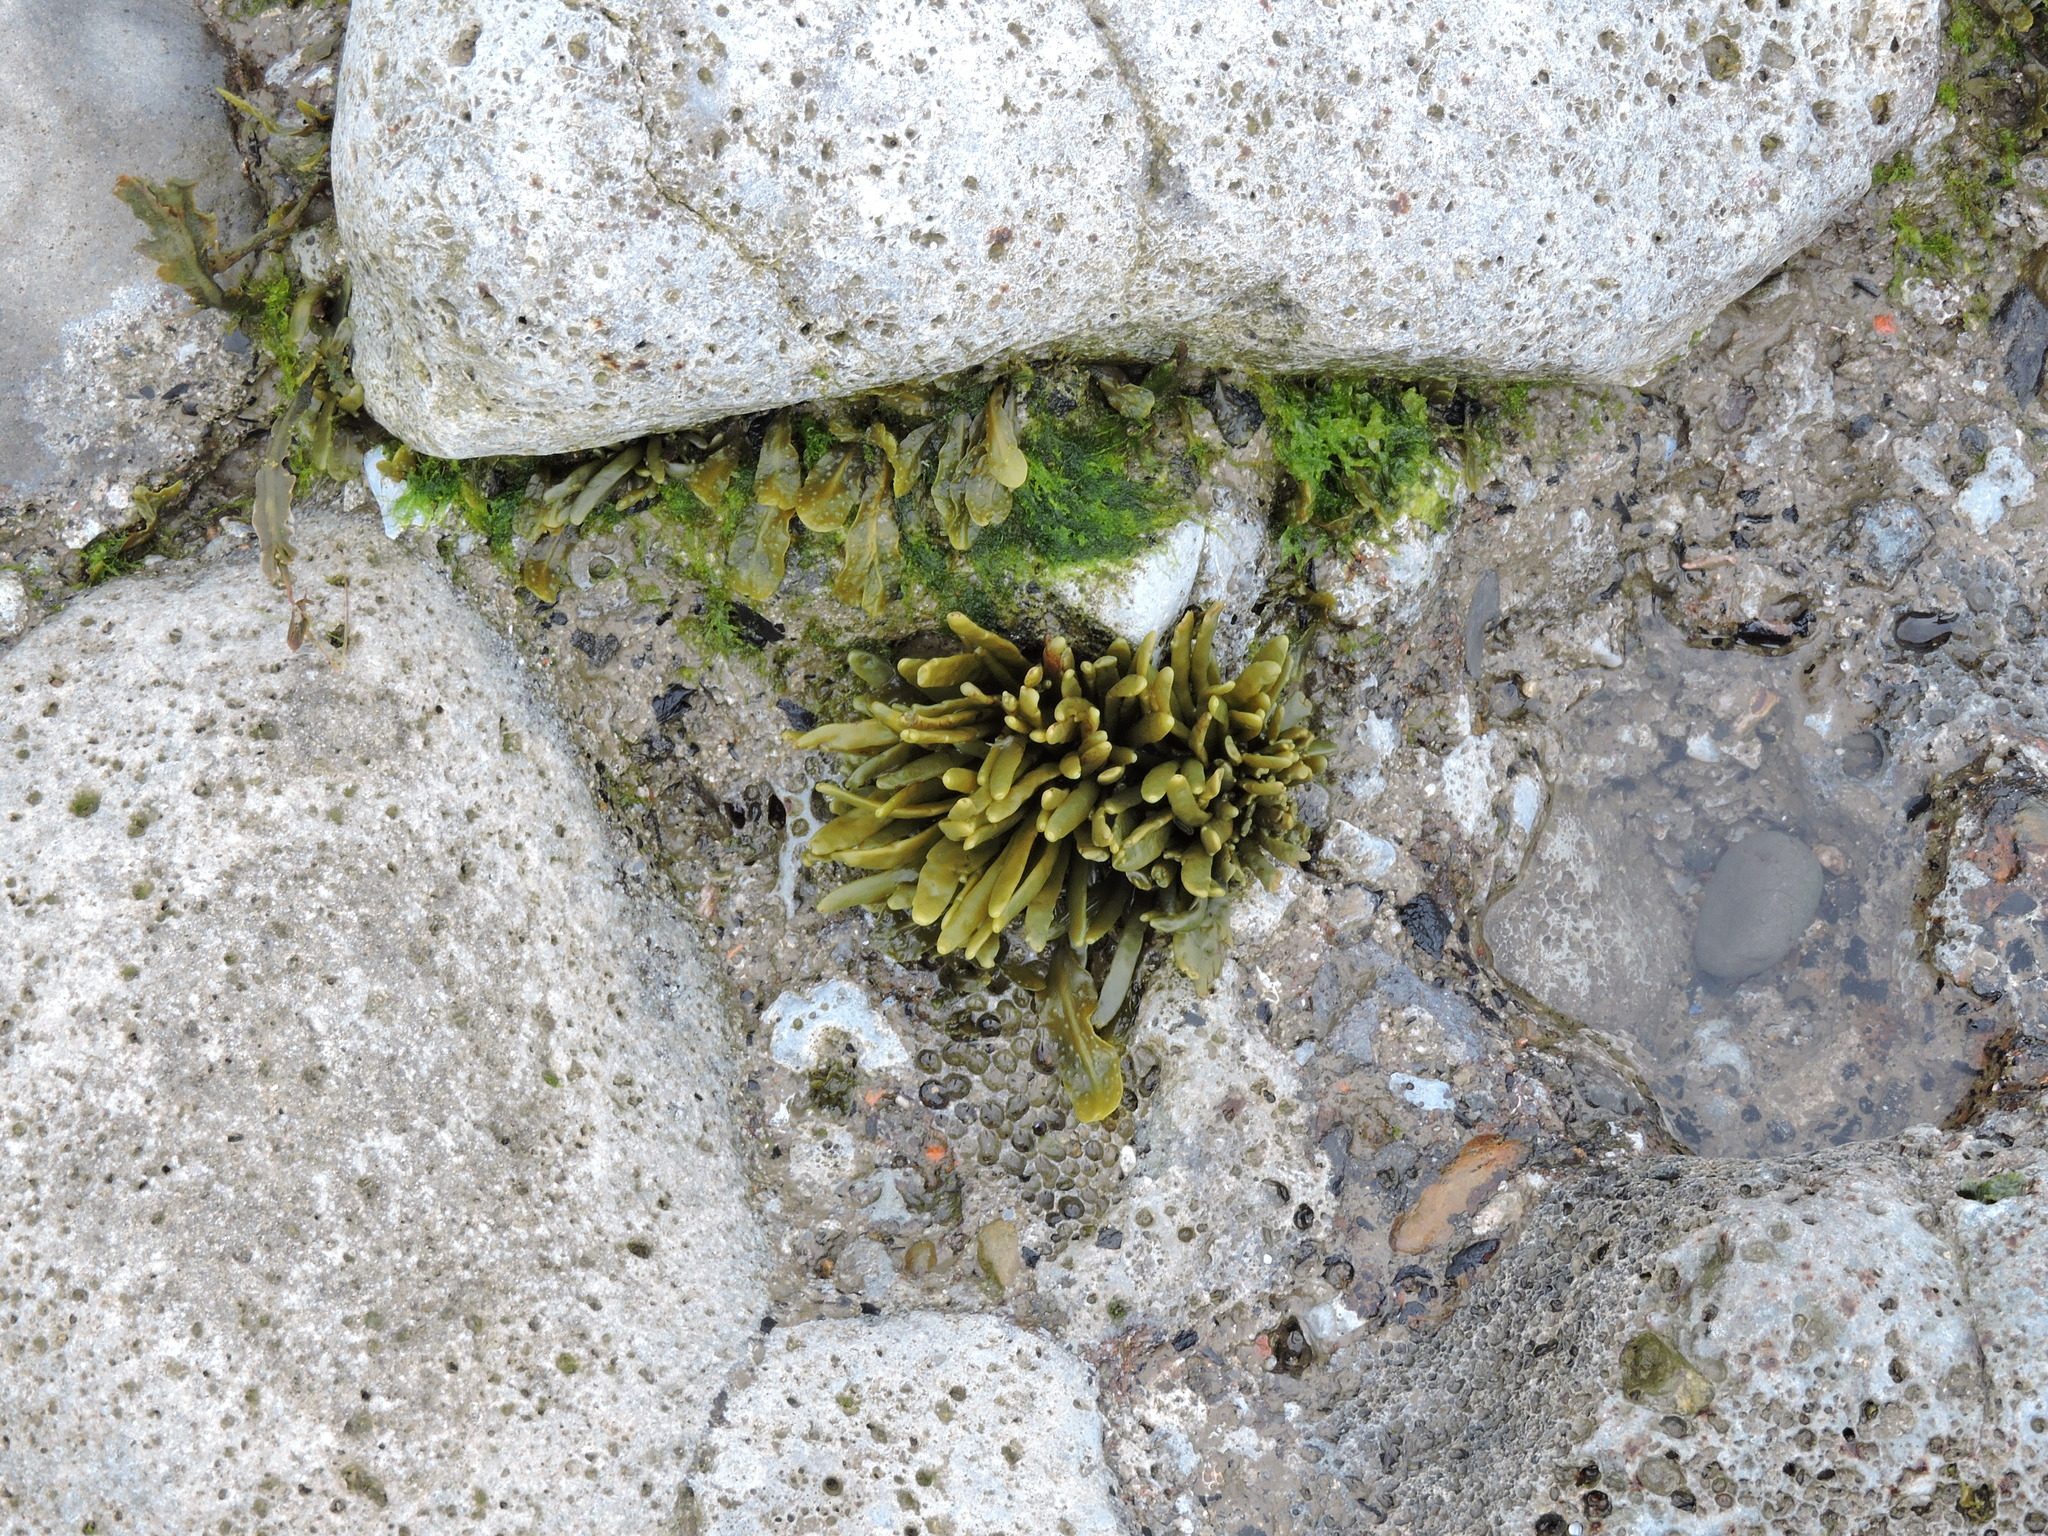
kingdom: Chromista
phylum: Ochrophyta
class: Phaeophyceae
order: Fucales
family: Fucaceae
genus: Ascophyllum
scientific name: Ascophyllum nodosum
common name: Knotted wrack
